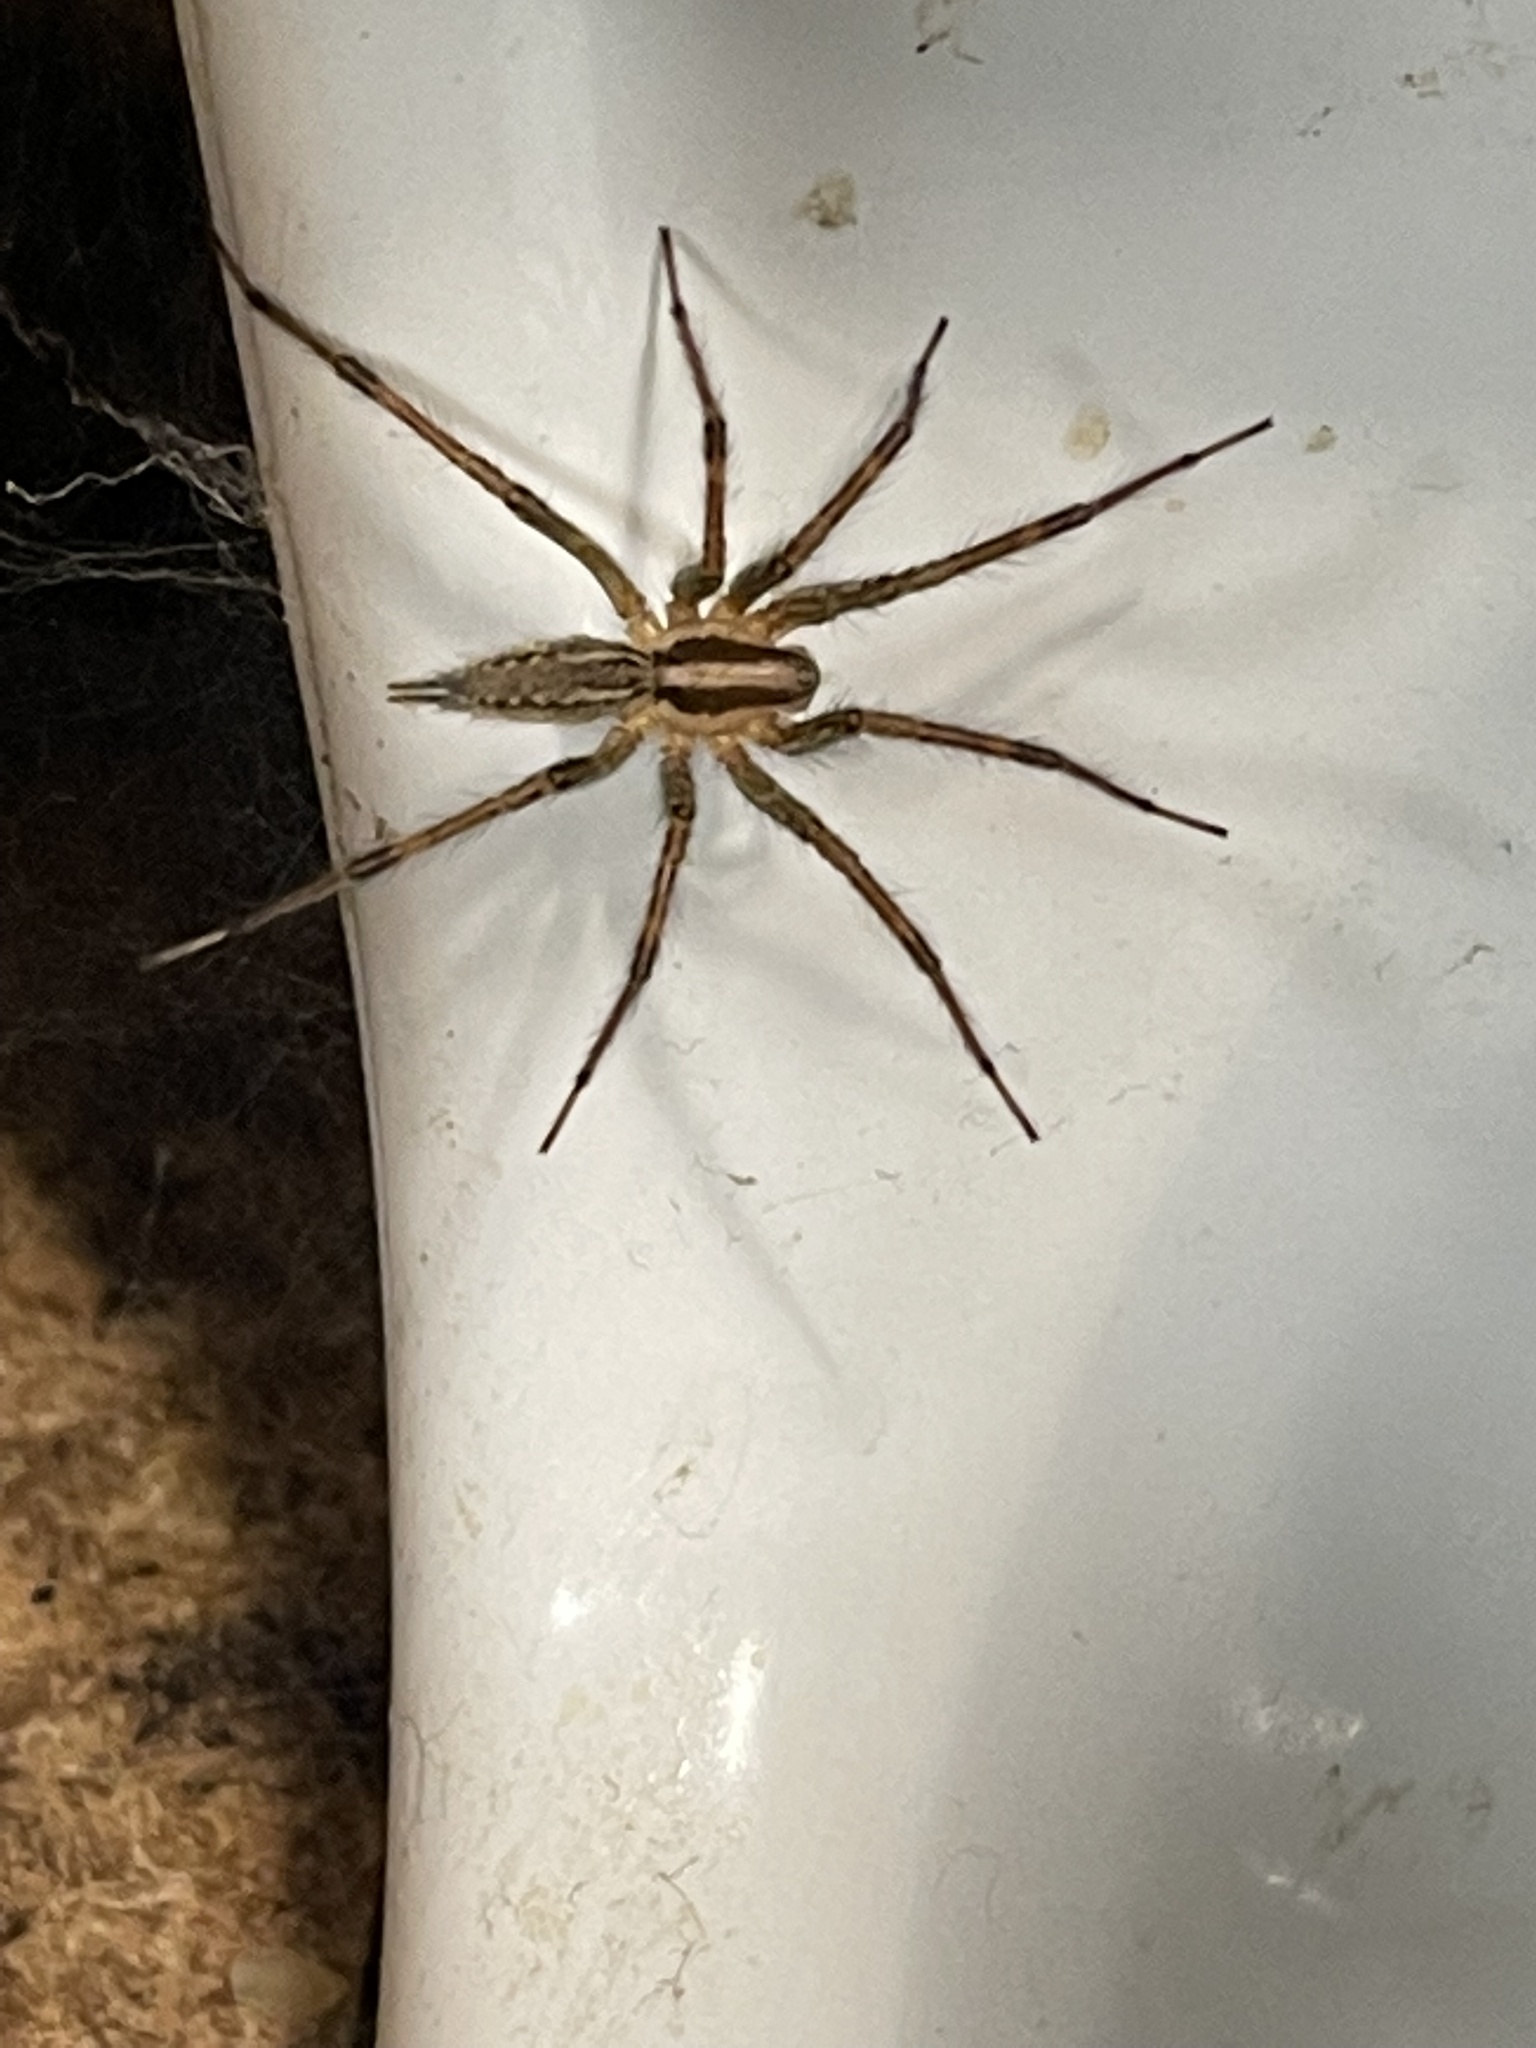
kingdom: Animalia
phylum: Arthropoda
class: Arachnida
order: Araneae
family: Agelenidae
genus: Agelenopsis
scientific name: Agelenopsis
